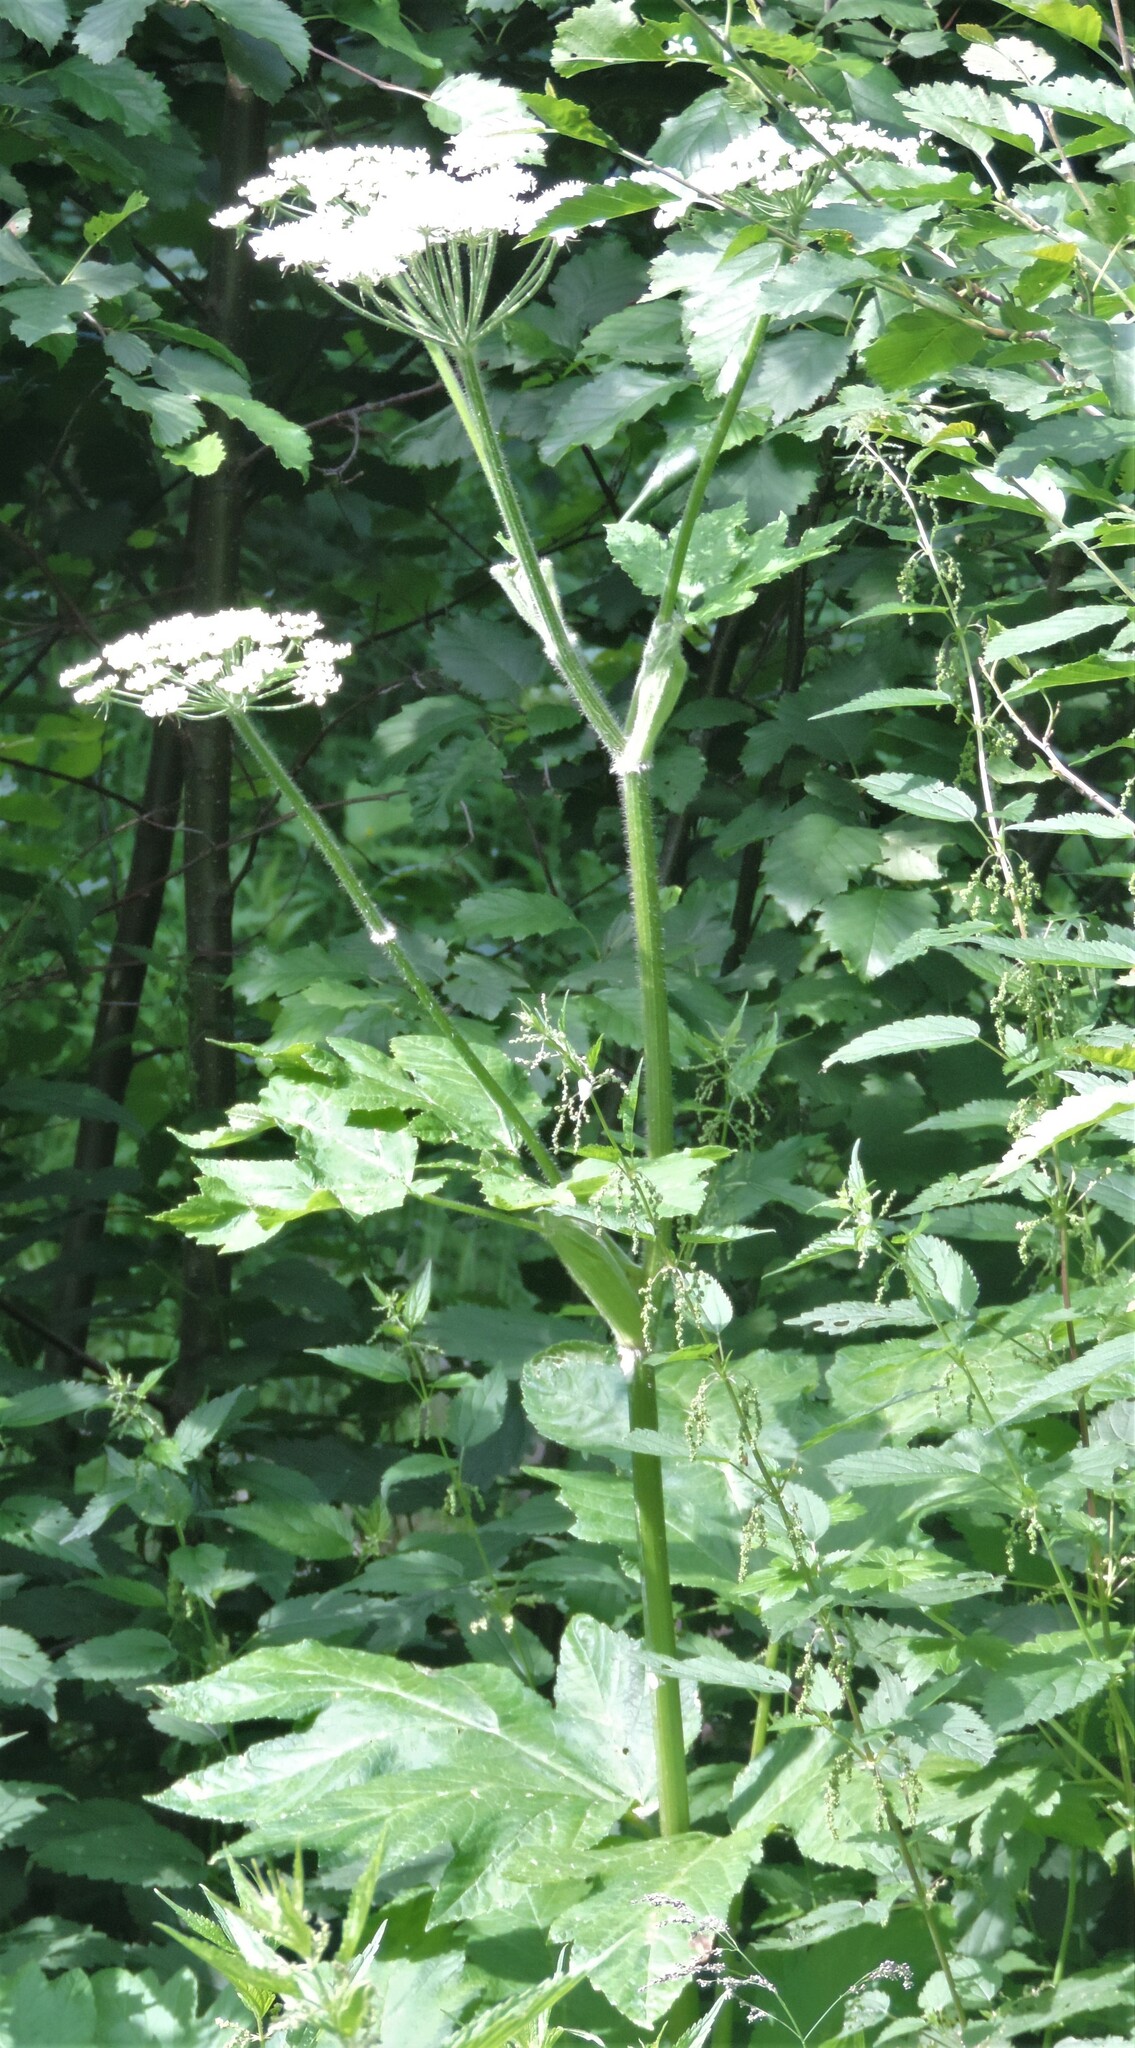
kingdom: Plantae
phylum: Tracheophyta
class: Magnoliopsida
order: Apiales
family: Apiaceae
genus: Heracleum
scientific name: Heracleum maximum
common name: American cow parsnip
